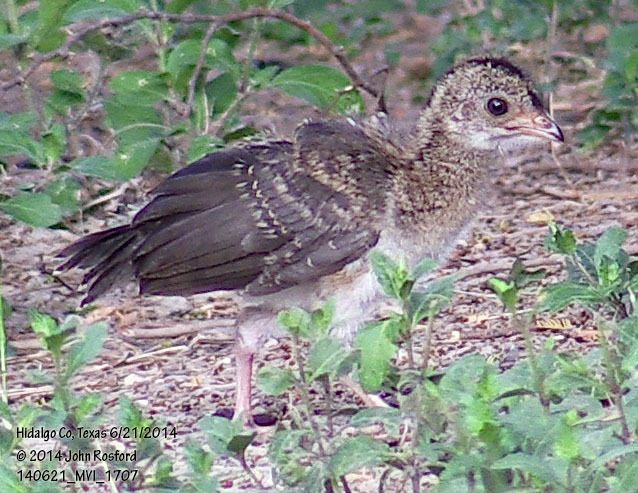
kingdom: Animalia
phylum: Chordata
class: Aves
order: Galliformes
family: Cracidae
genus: Ortalis
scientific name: Ortalis vetula
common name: Plain chachalaca
